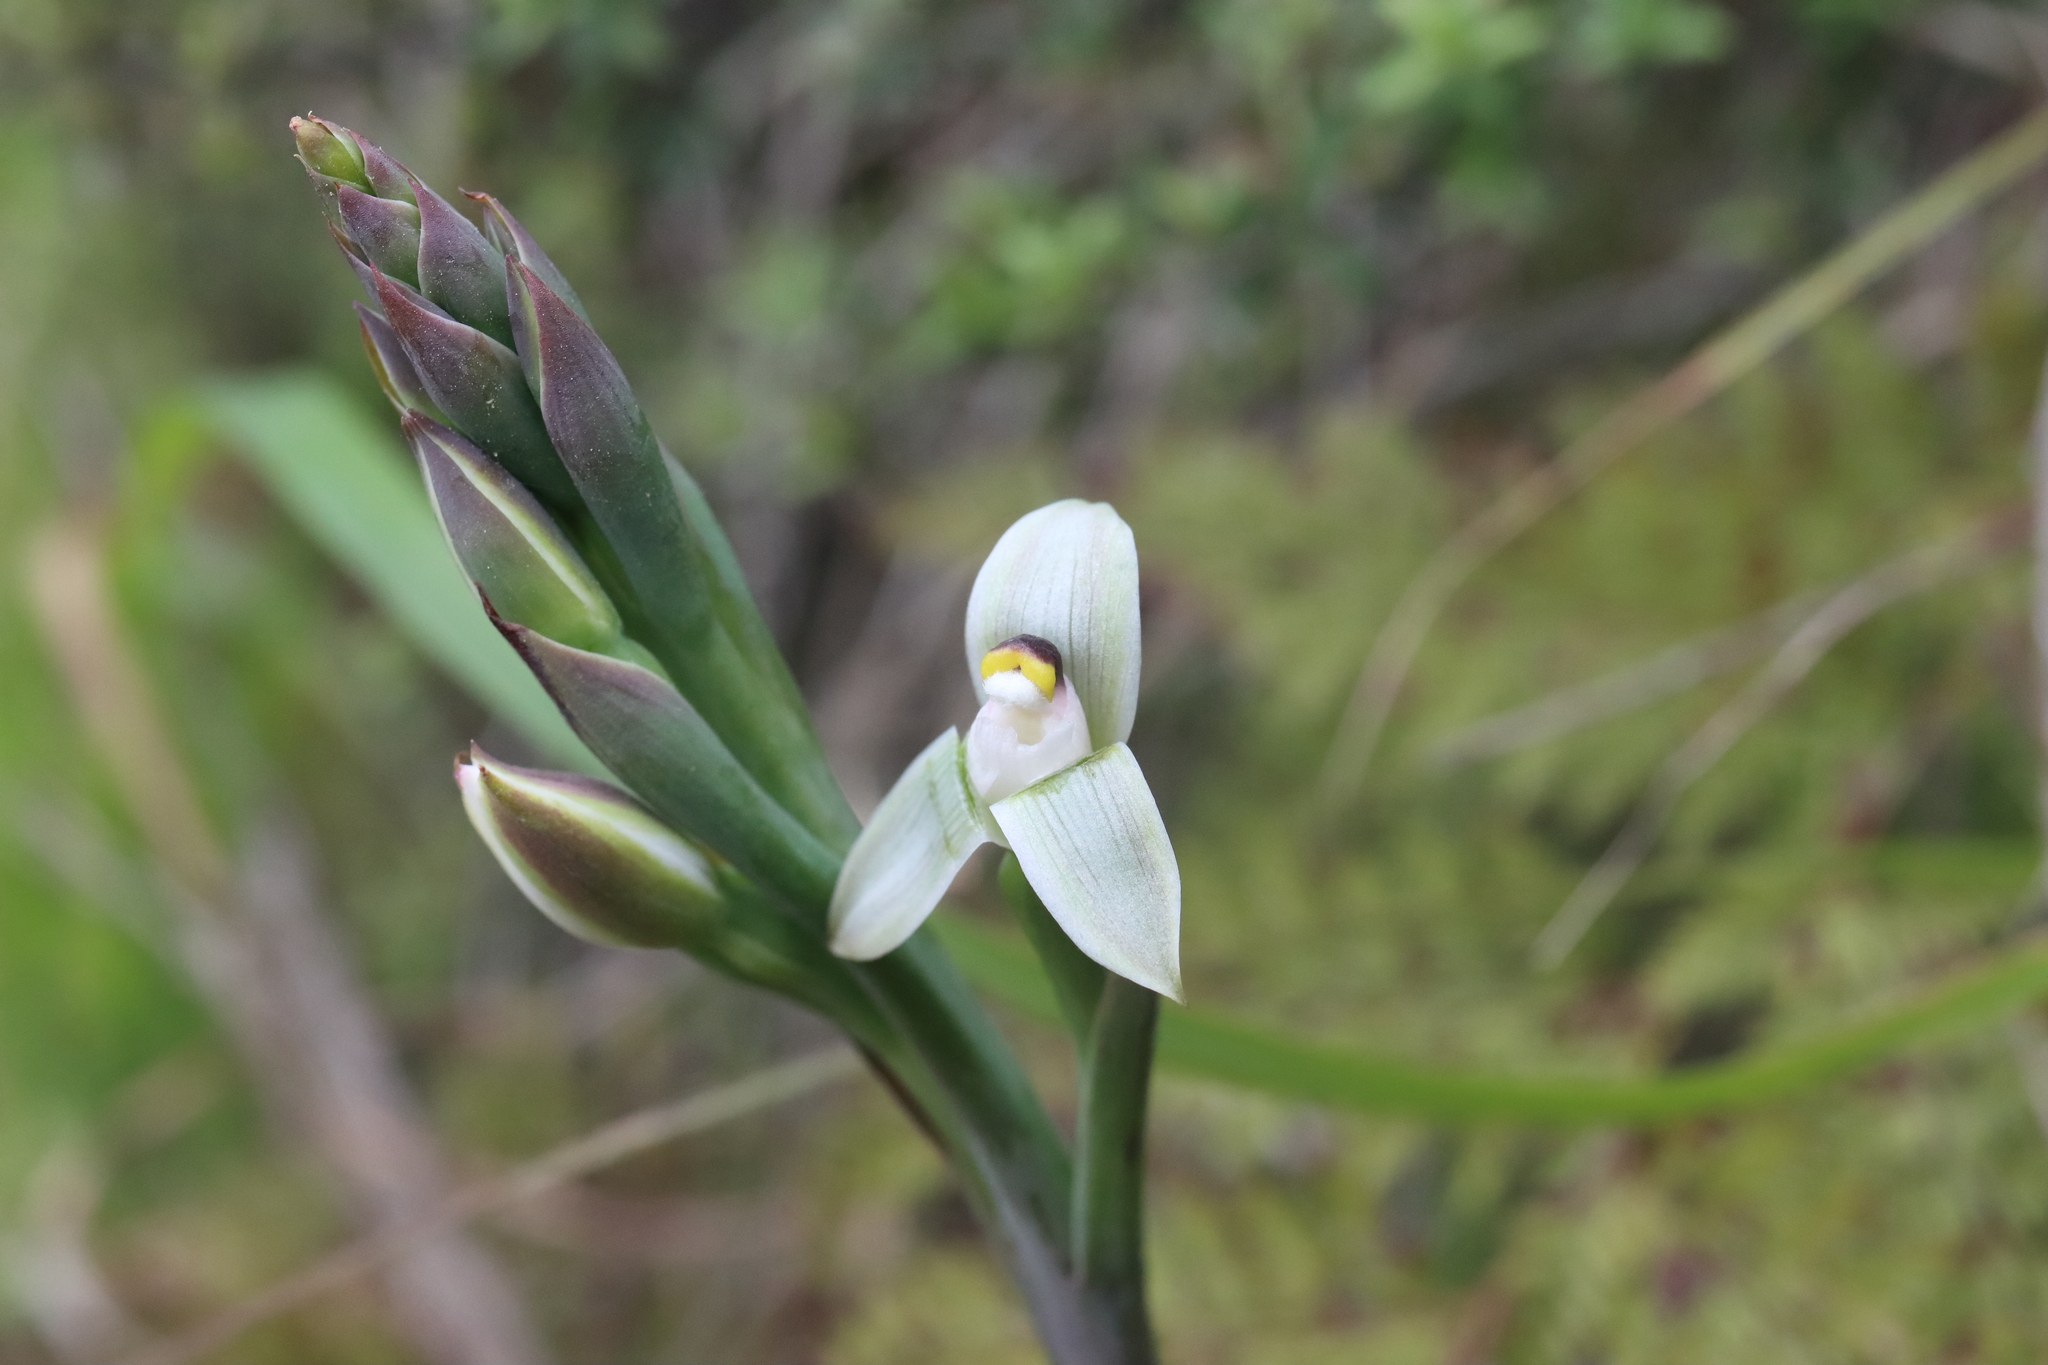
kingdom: Plantae
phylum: Tracheophyta
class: Liliopsida
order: Asparagales
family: Orchidaceae
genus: Thelymitra
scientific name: Thelymitra longifolia
